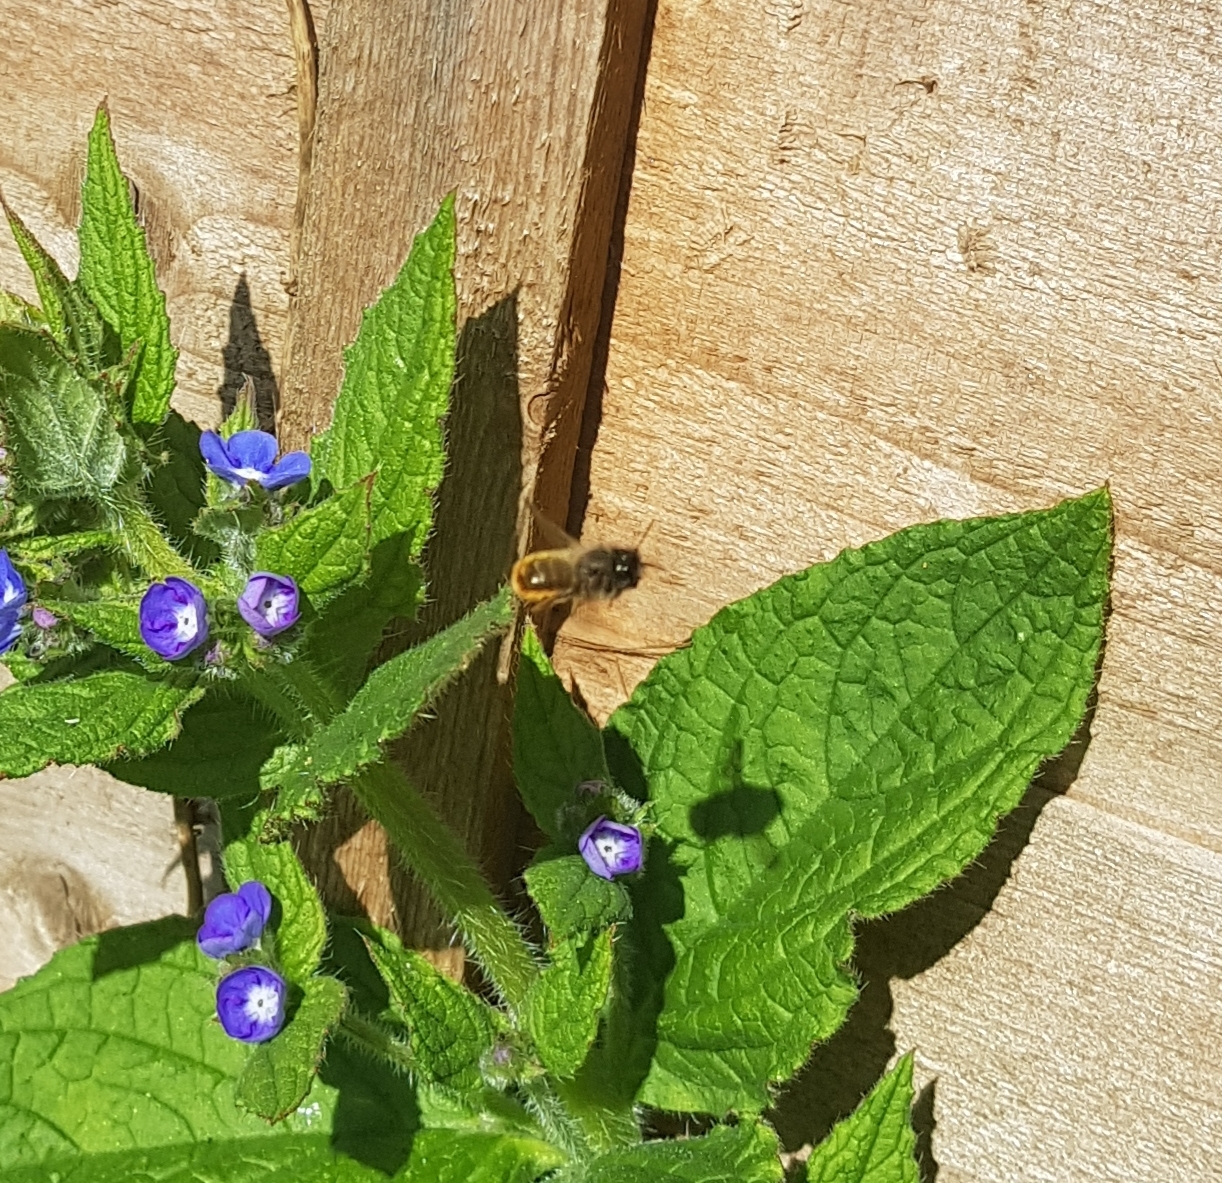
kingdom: Animalia
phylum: Arthropoda
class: Insecta
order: Hymenoptera
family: Megachilidae
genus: Osmia
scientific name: Osmia bicornis
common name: Red mason bee
